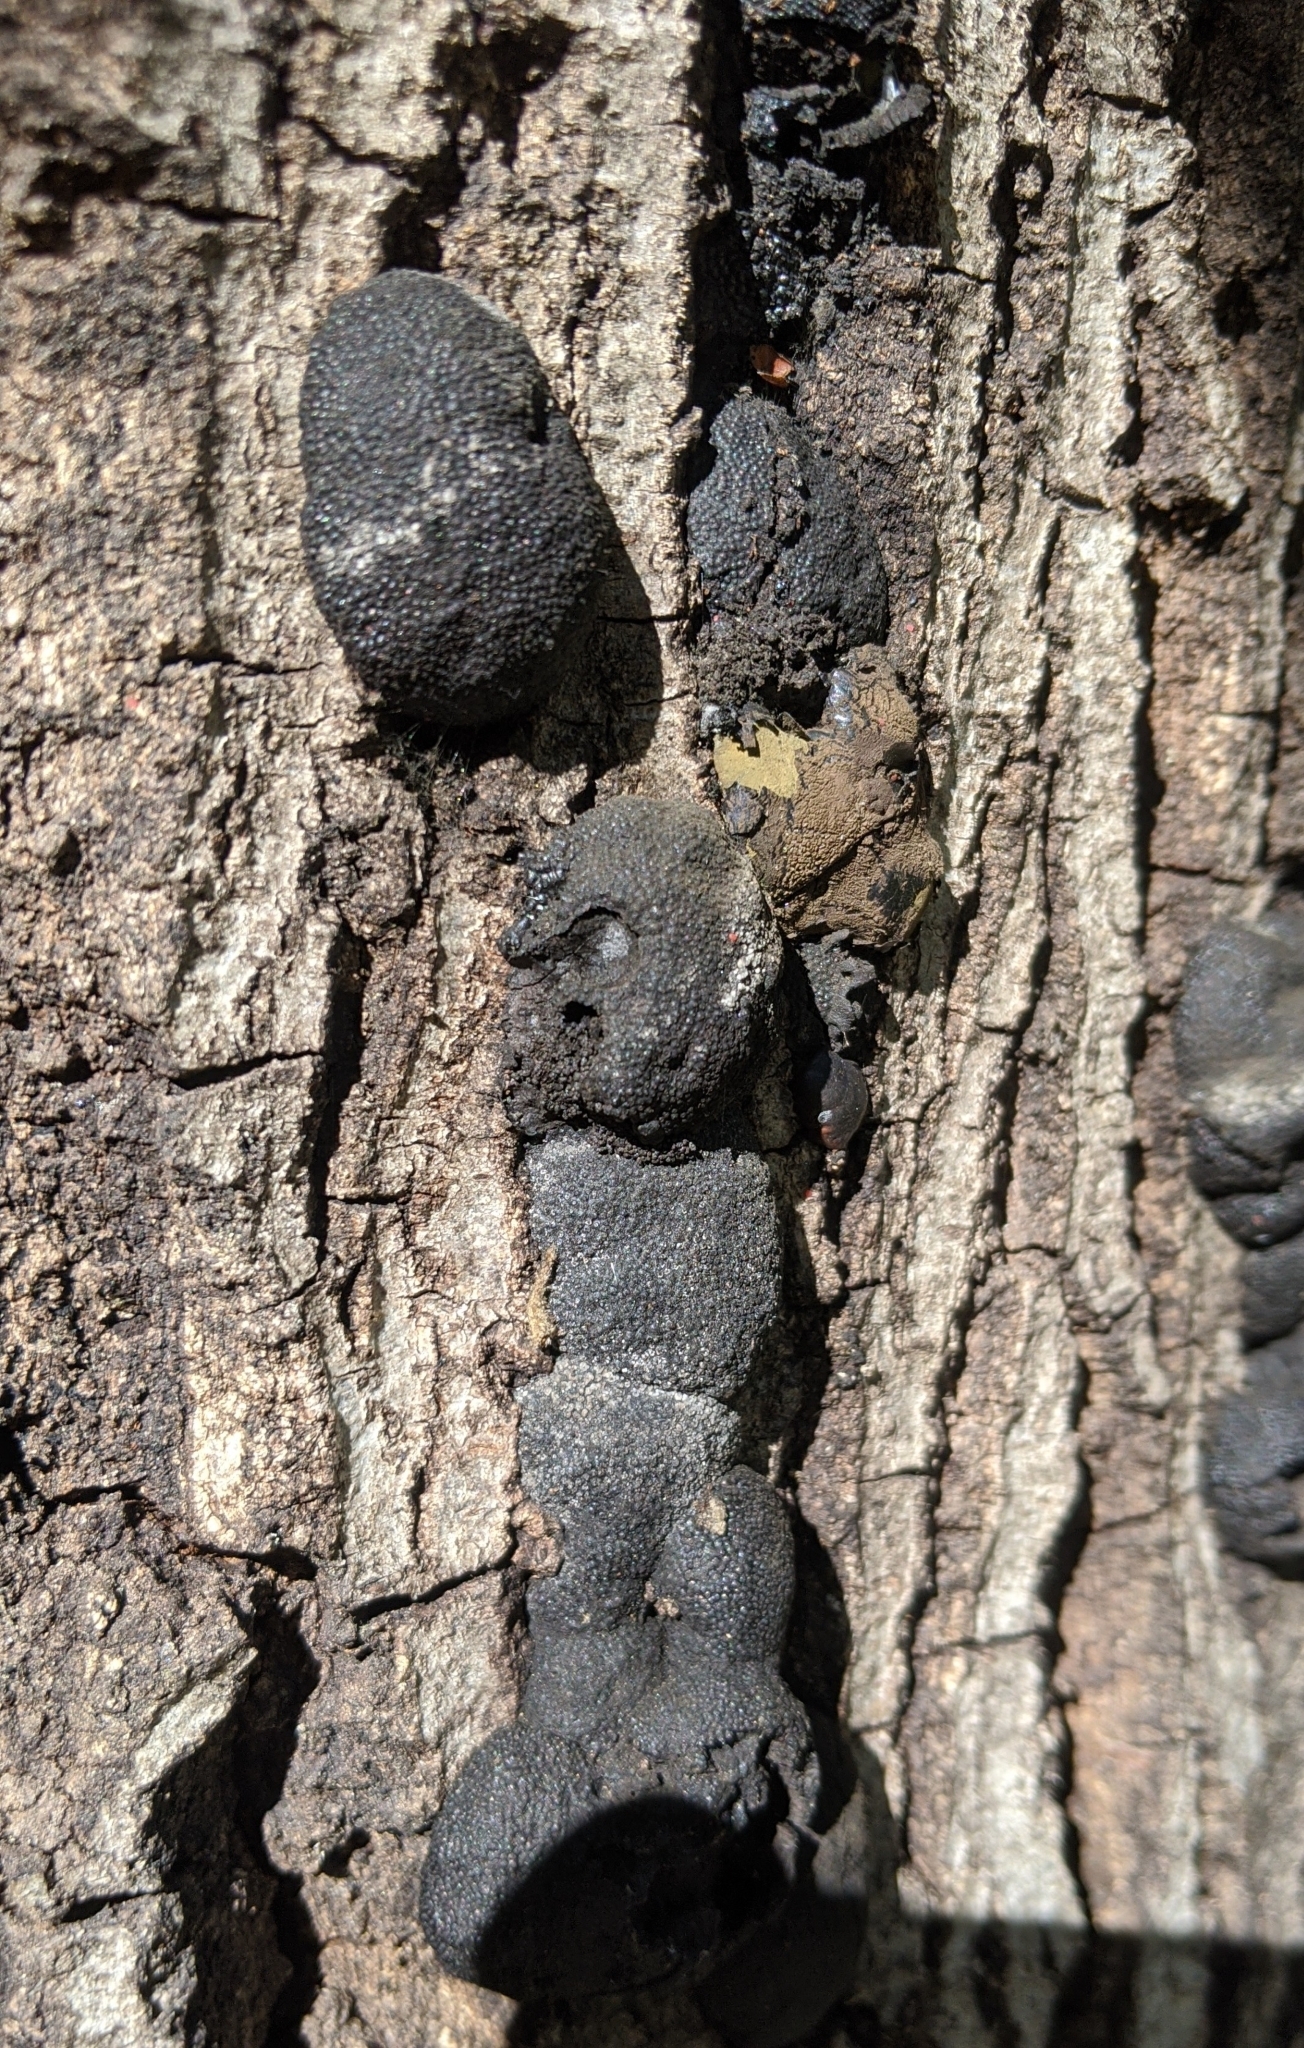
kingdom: Fungi
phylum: Ascomycota
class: Sordariomycetes
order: Xylariales
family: Hypoxylaceae
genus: Annulohypoxylon
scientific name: Annulohypoxylon thouarsianum
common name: Cramp balls
